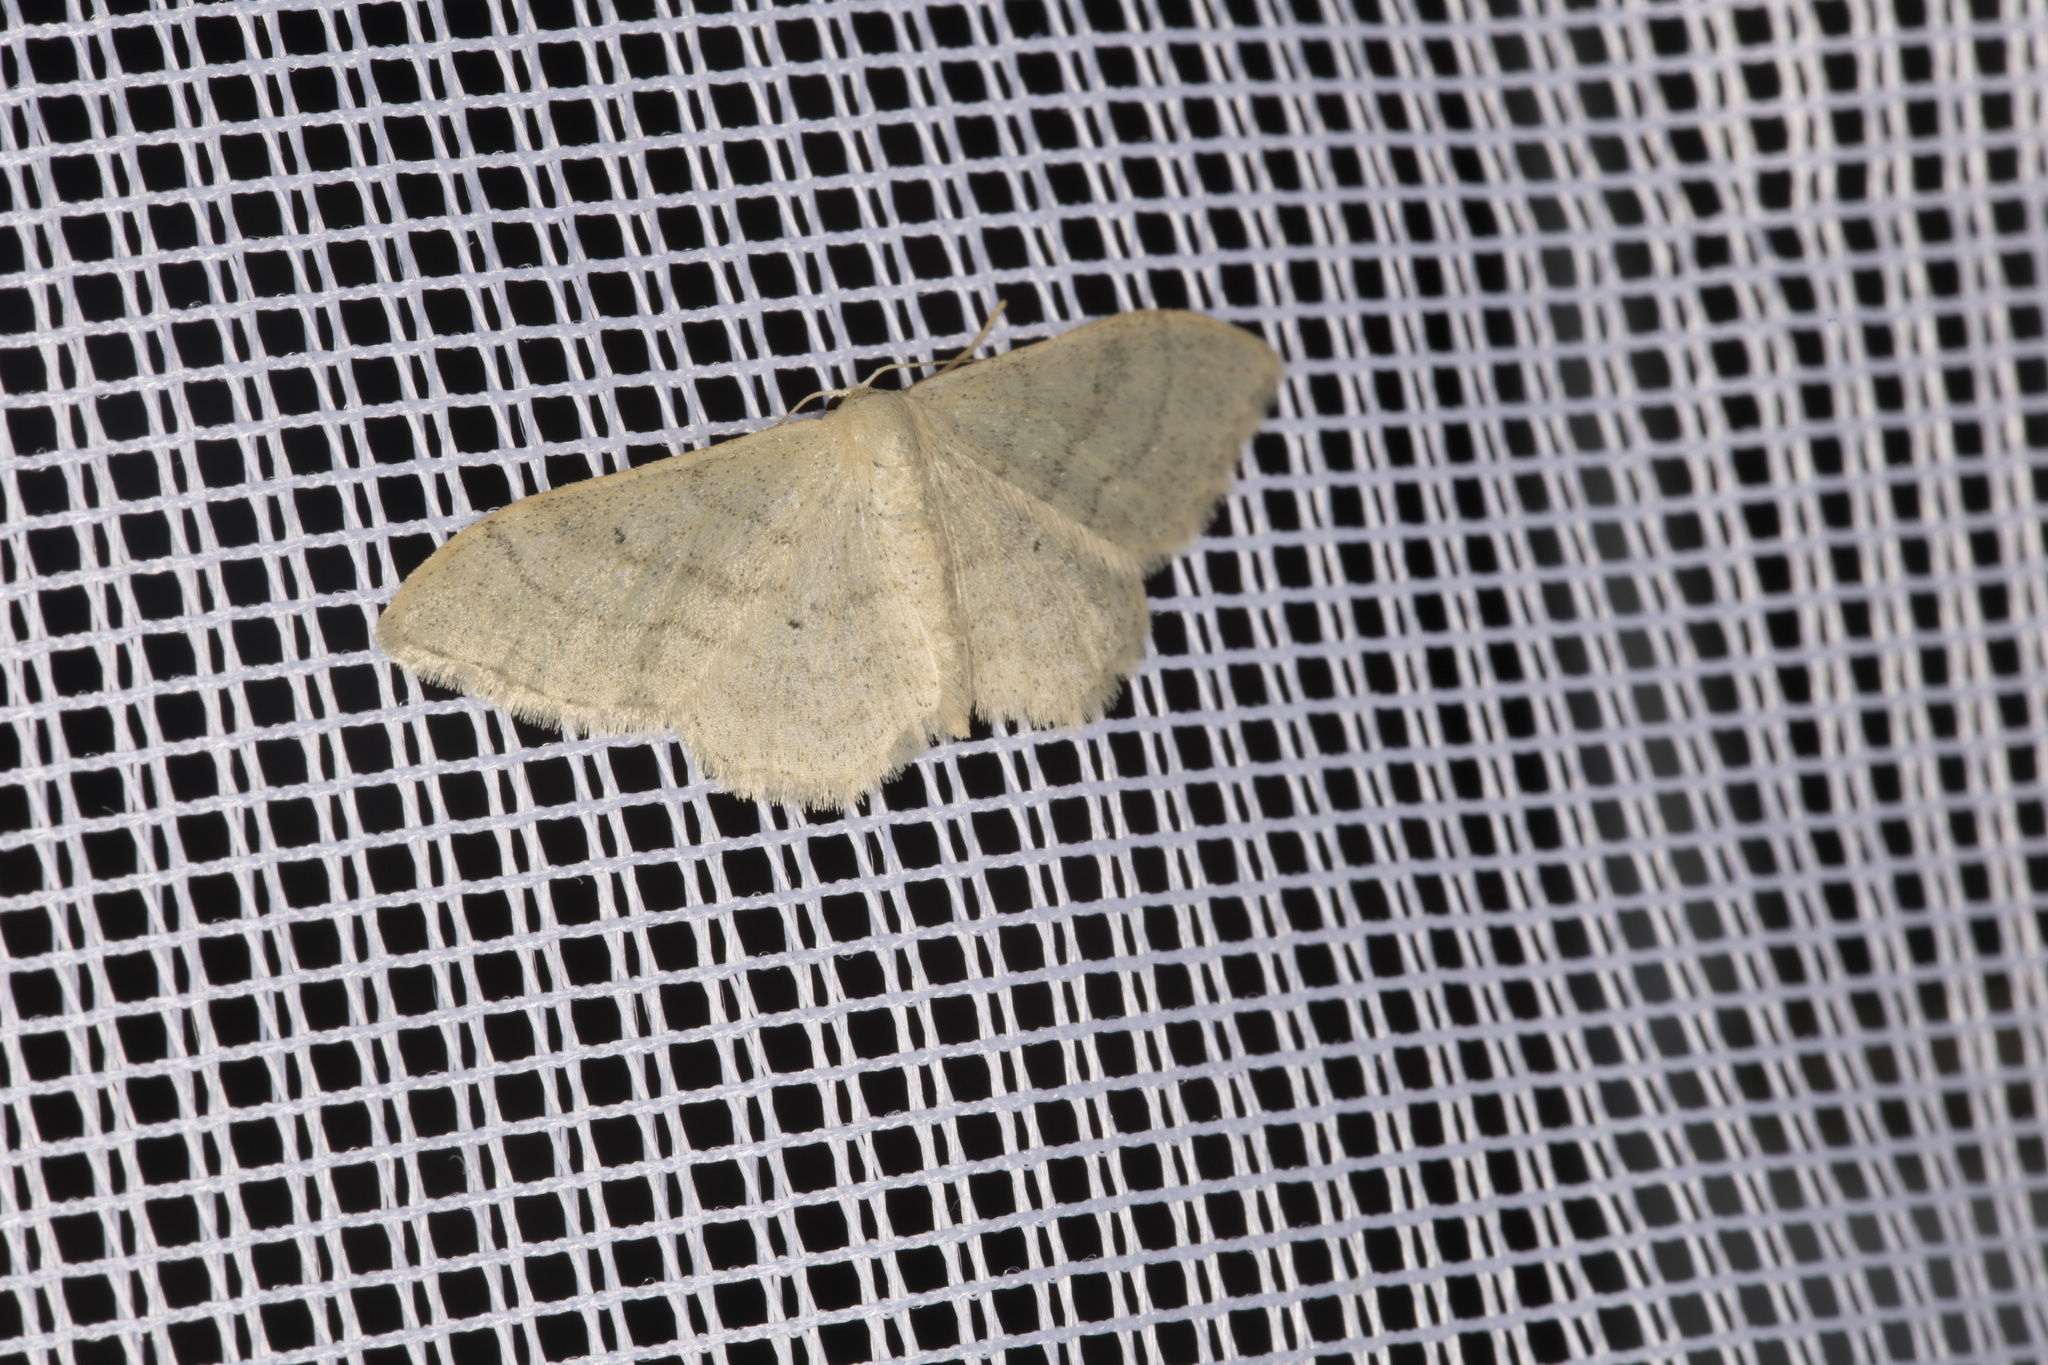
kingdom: Animalia
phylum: Arthropoda
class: Insecta
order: Lepidoptera
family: Geometridae
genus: Idaea
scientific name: Idaea straminata
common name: Plain wave
